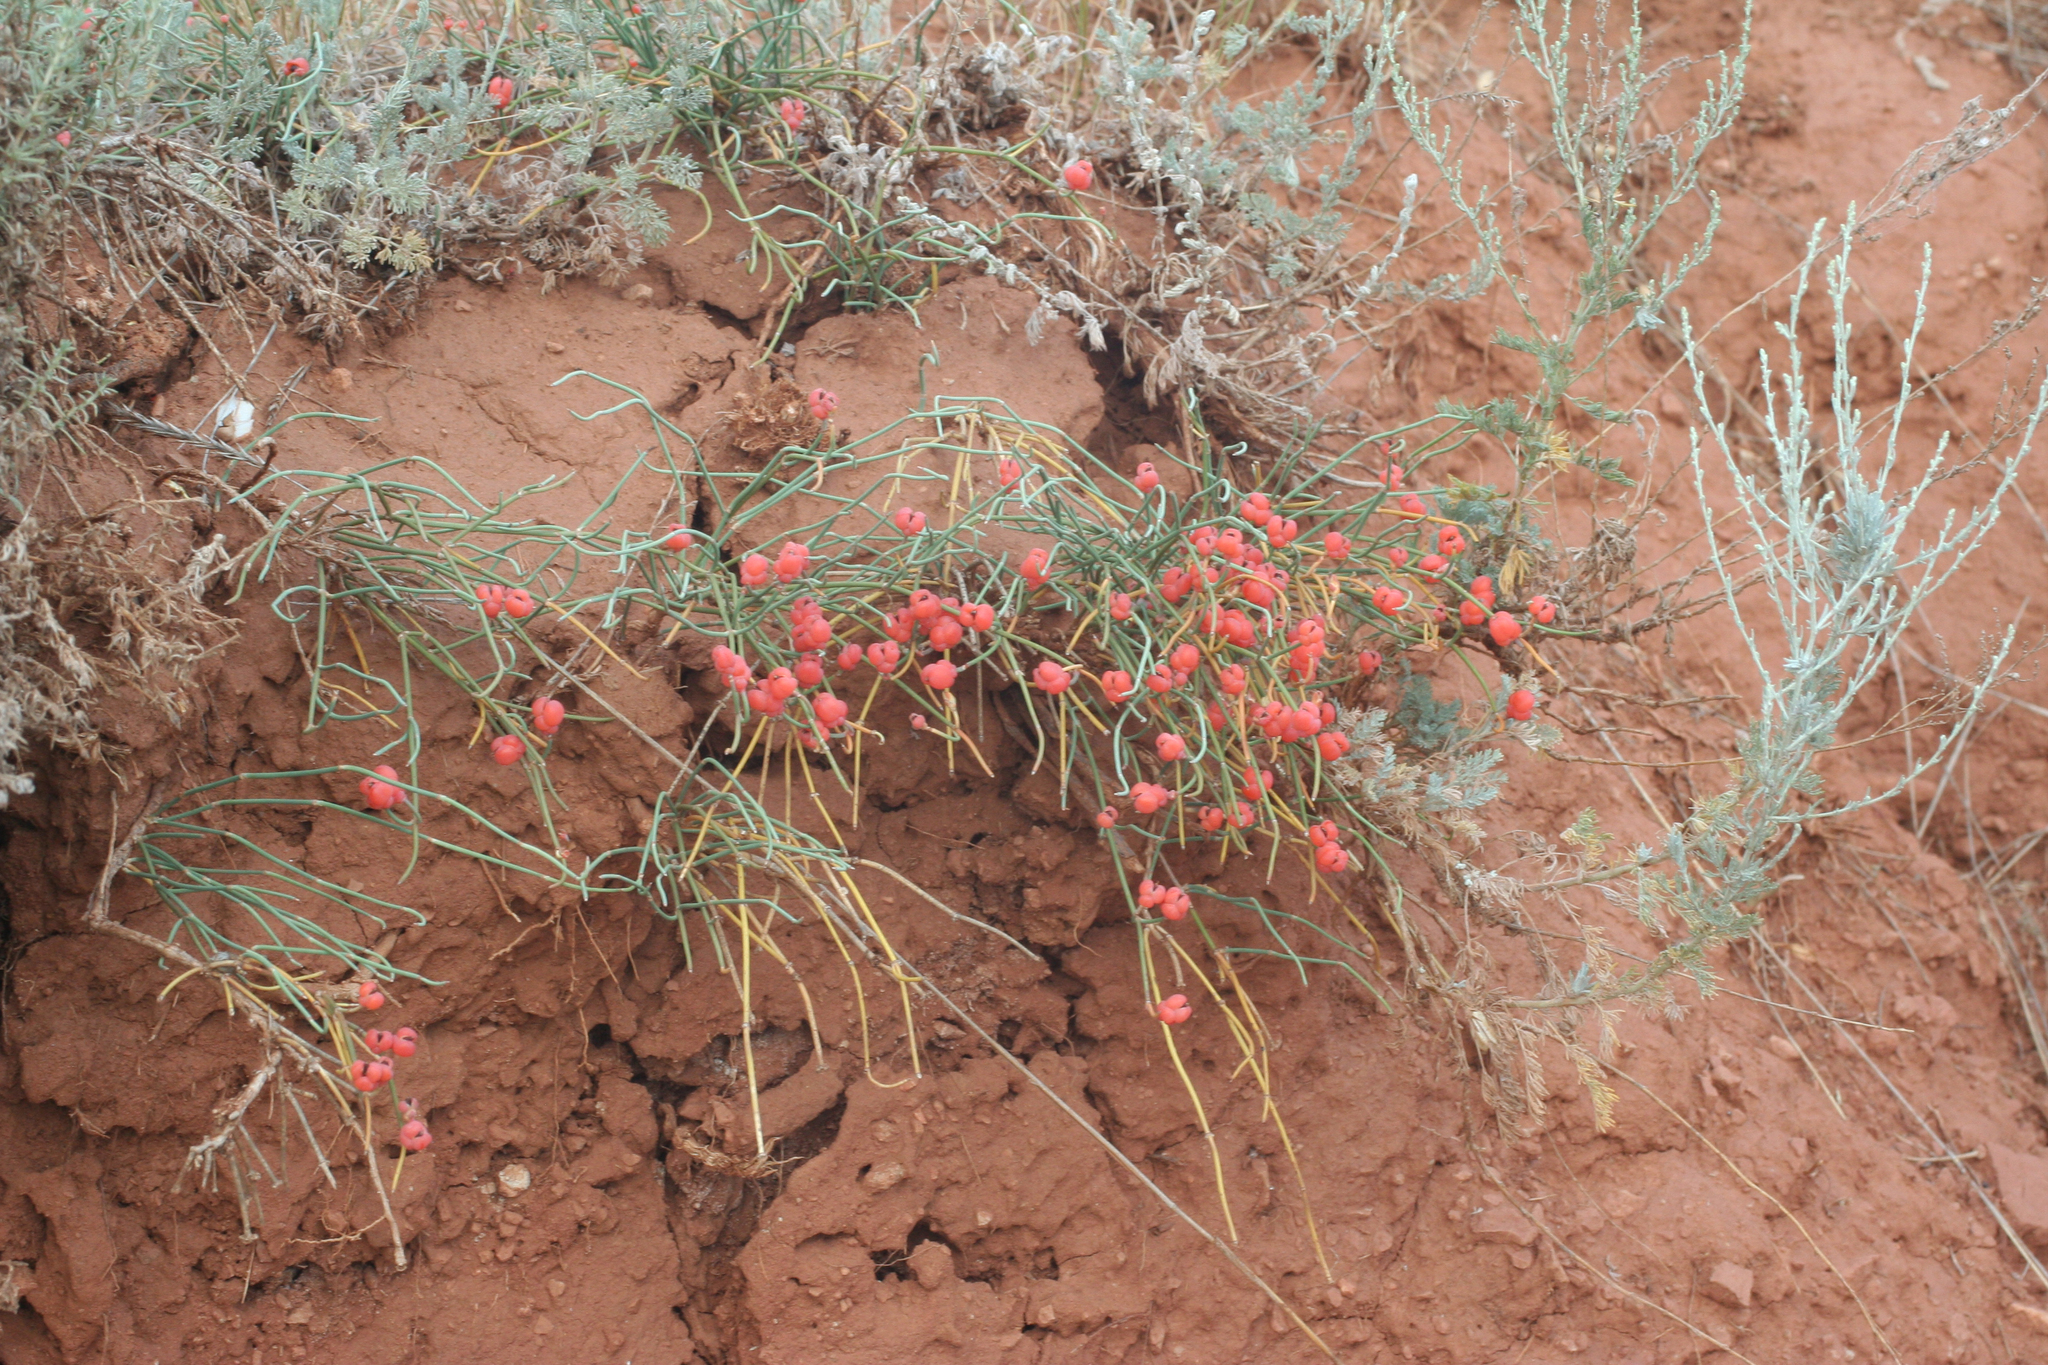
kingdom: Plantae
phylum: Tracheophyta
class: Gnetopsida
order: Ephedrales
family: Ephedraceae
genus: Ephedra
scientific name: Ephedra distachya
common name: Sea grape
